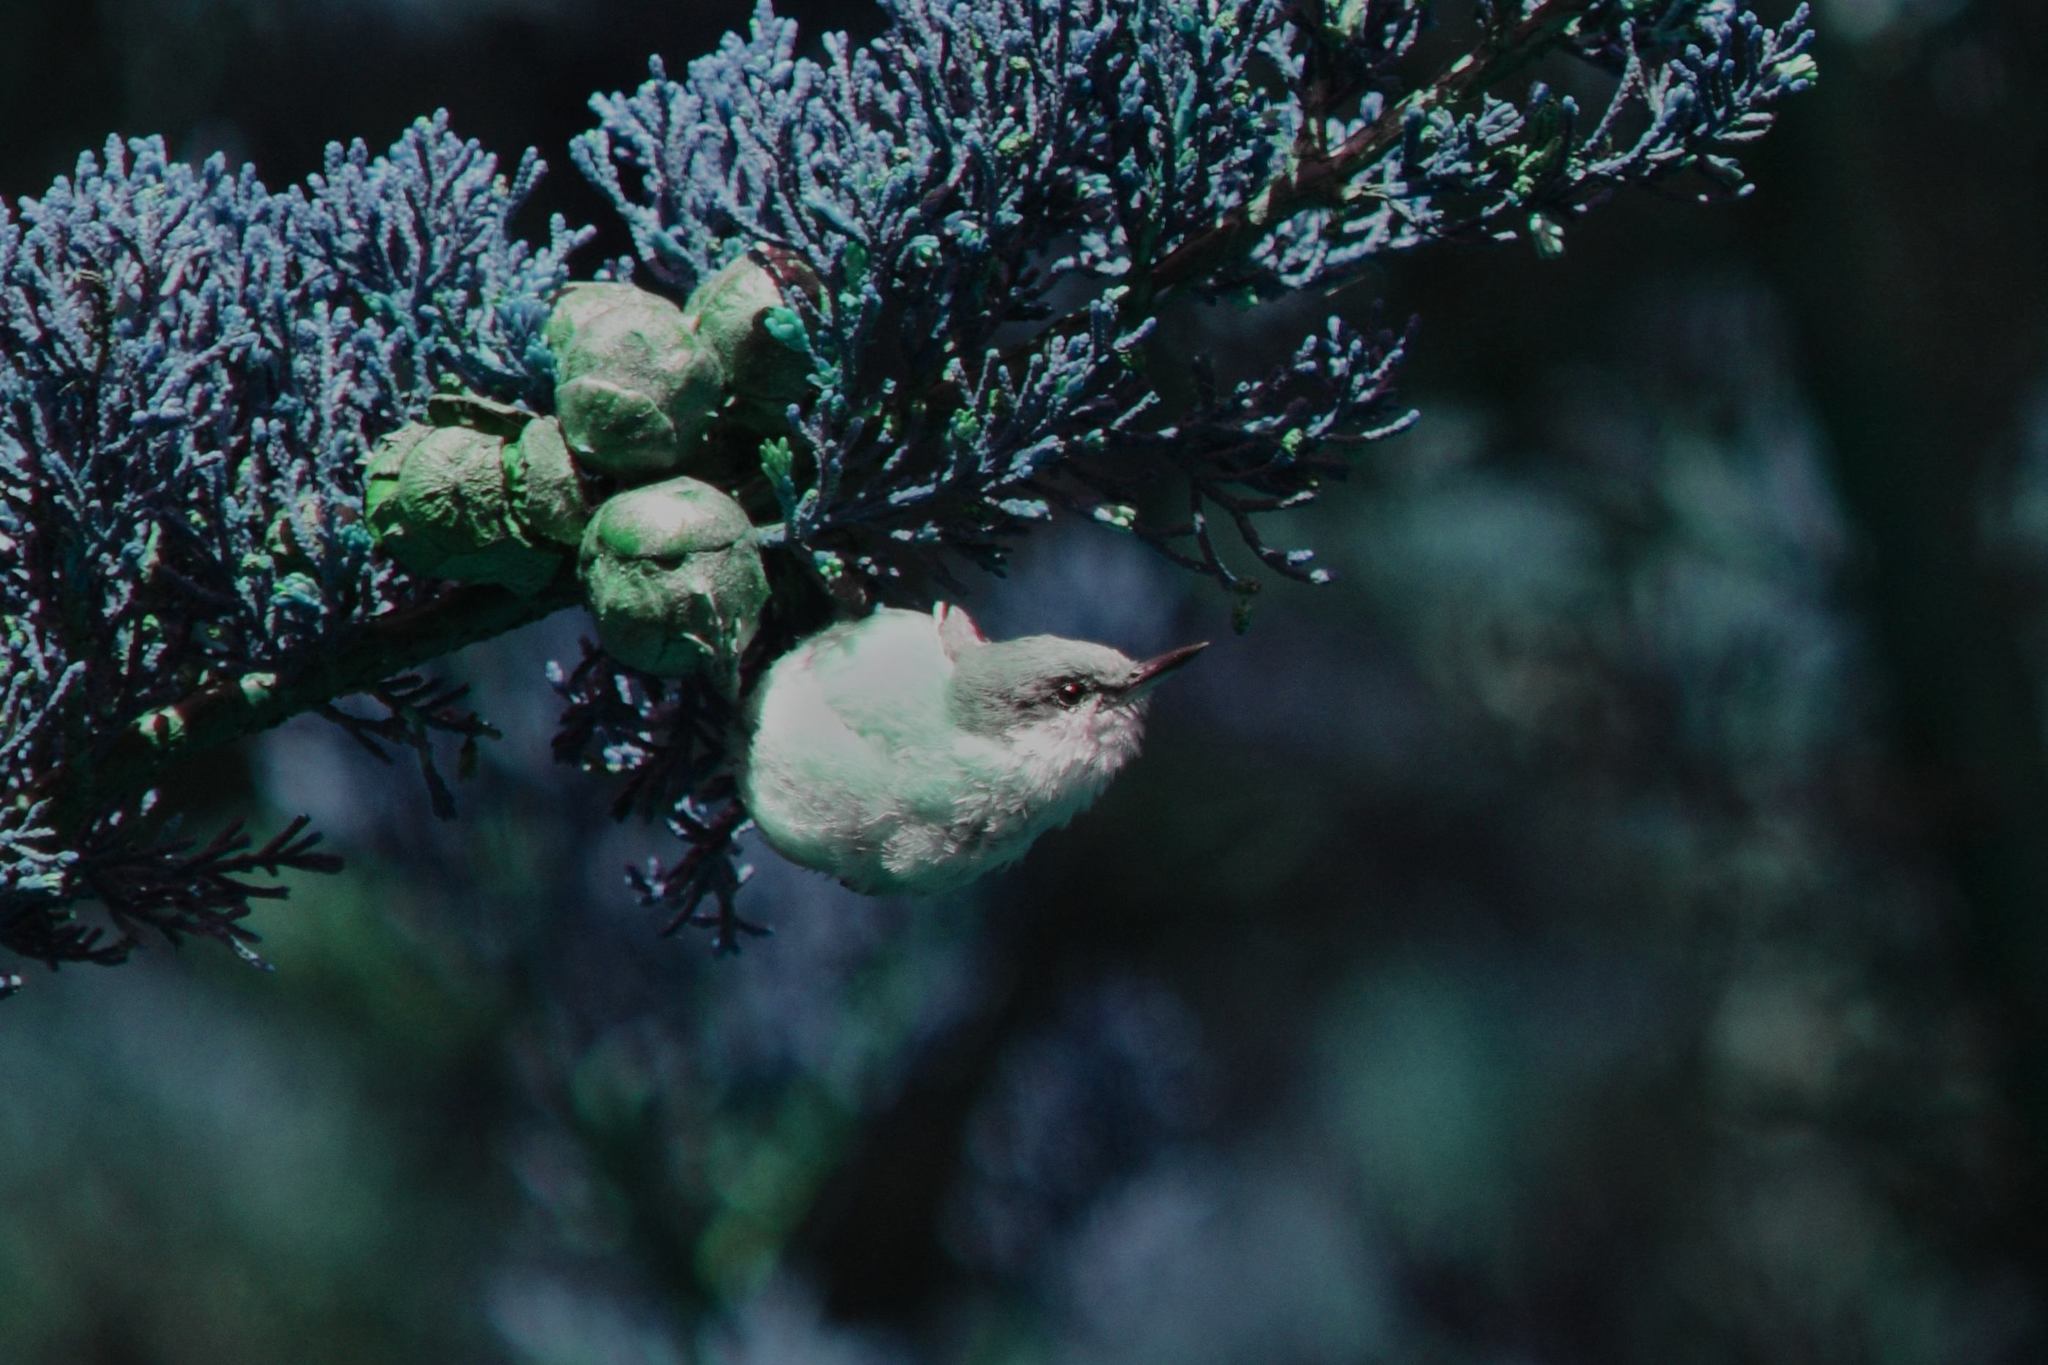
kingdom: Animalia
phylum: Chordata
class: Aves
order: Passeriformes
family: Sittidae
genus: Sitta
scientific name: Sitta pygmaea
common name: Pygmy nuthatch
